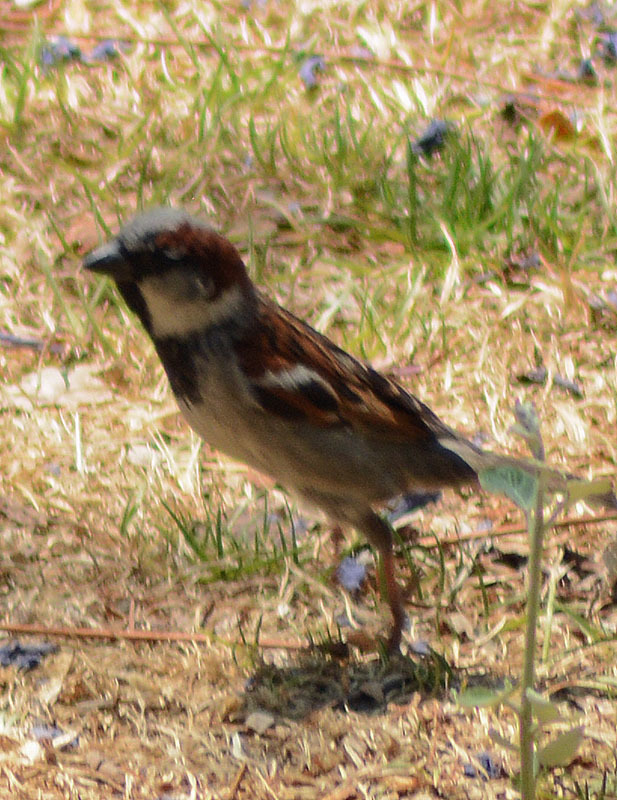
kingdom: Animalia
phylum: Chordata
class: Aves
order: Passeriformes
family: Passeridae
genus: Passer
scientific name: Passer domesticus
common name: House sparrow
